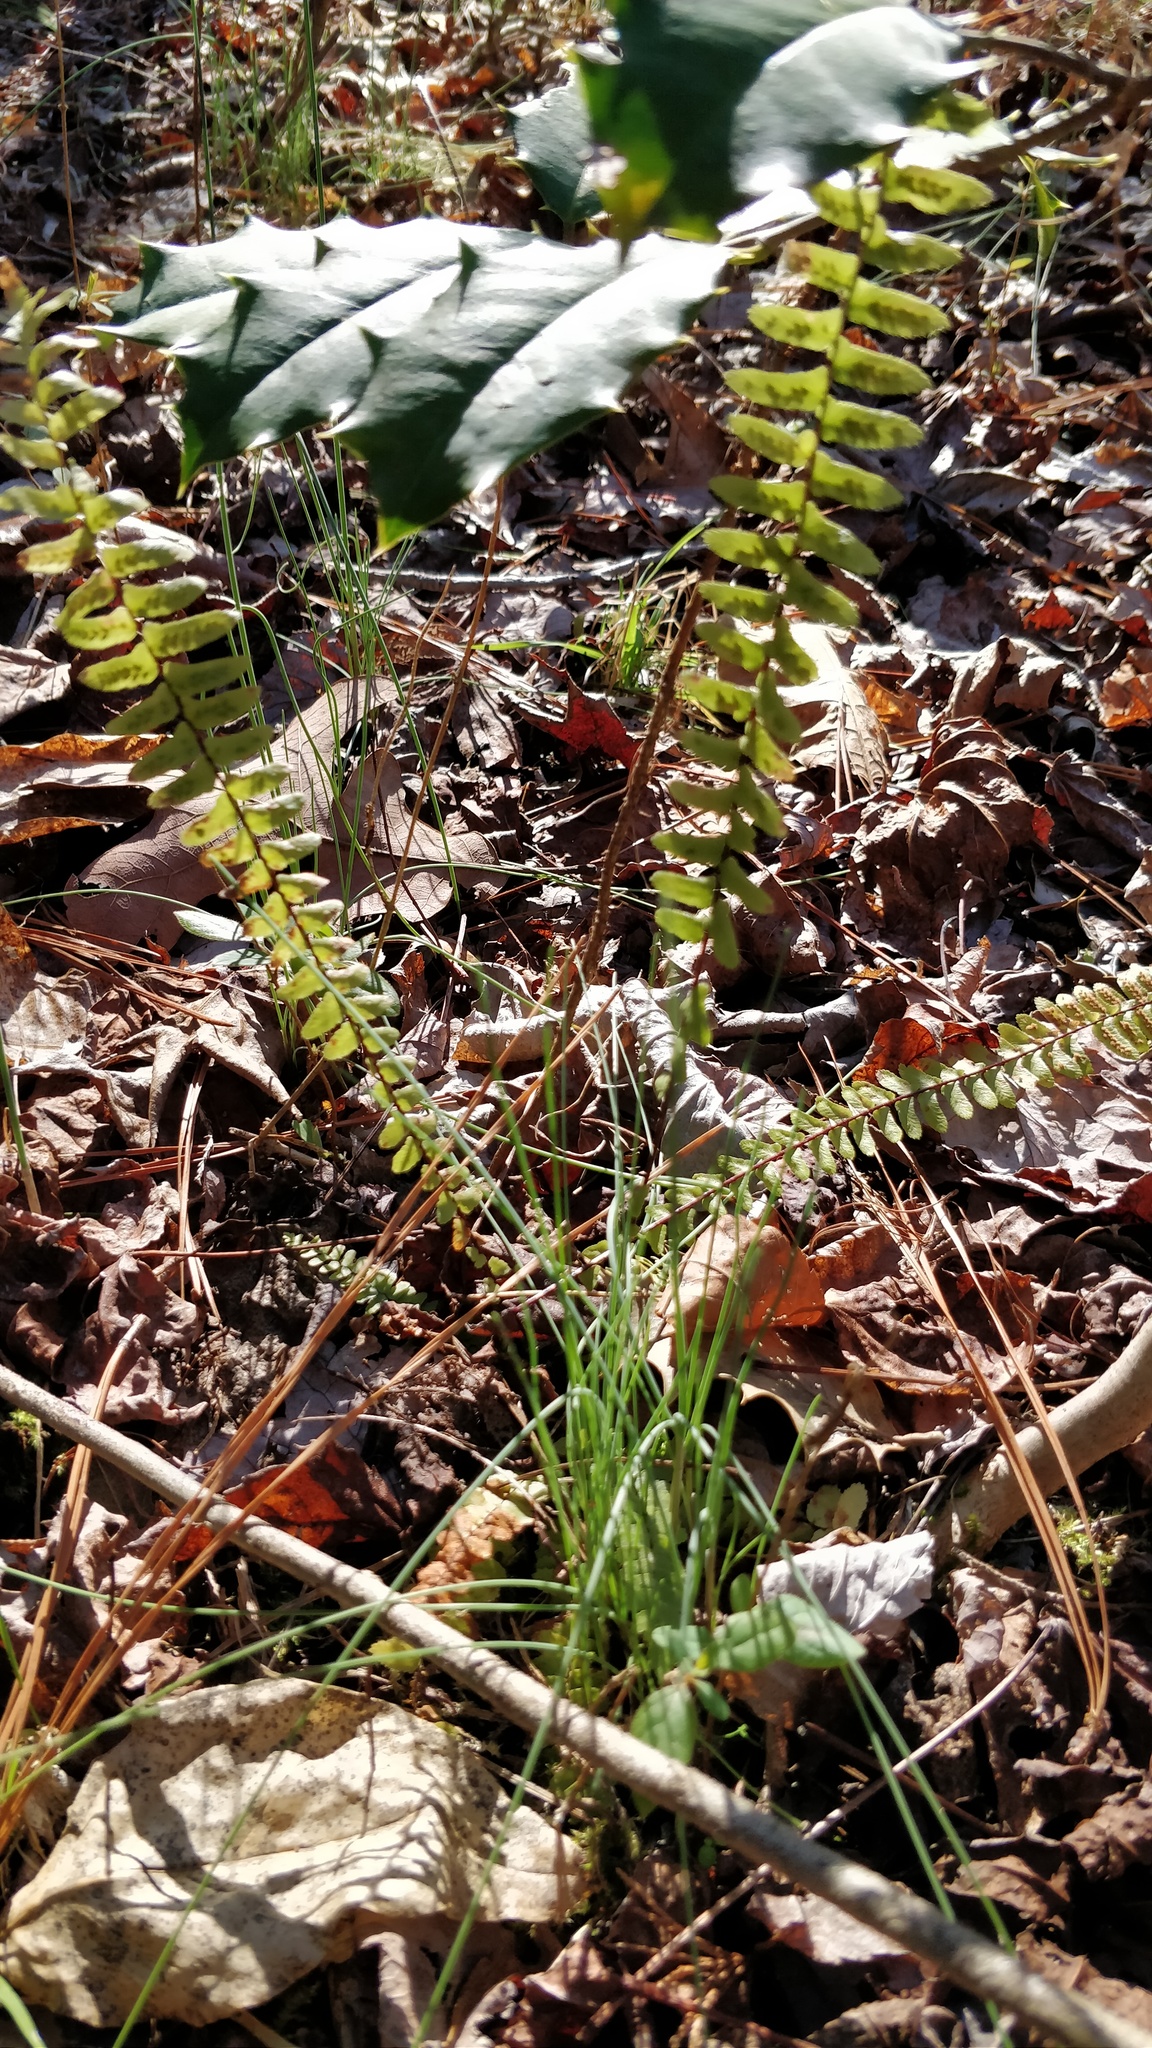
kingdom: Plantae
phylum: Tracheophyta
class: Polypodiopsida
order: Polypodiales
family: Aspleniaceae
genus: Asplenium
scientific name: Asplenium platyneuron
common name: Ebony spleenwort
